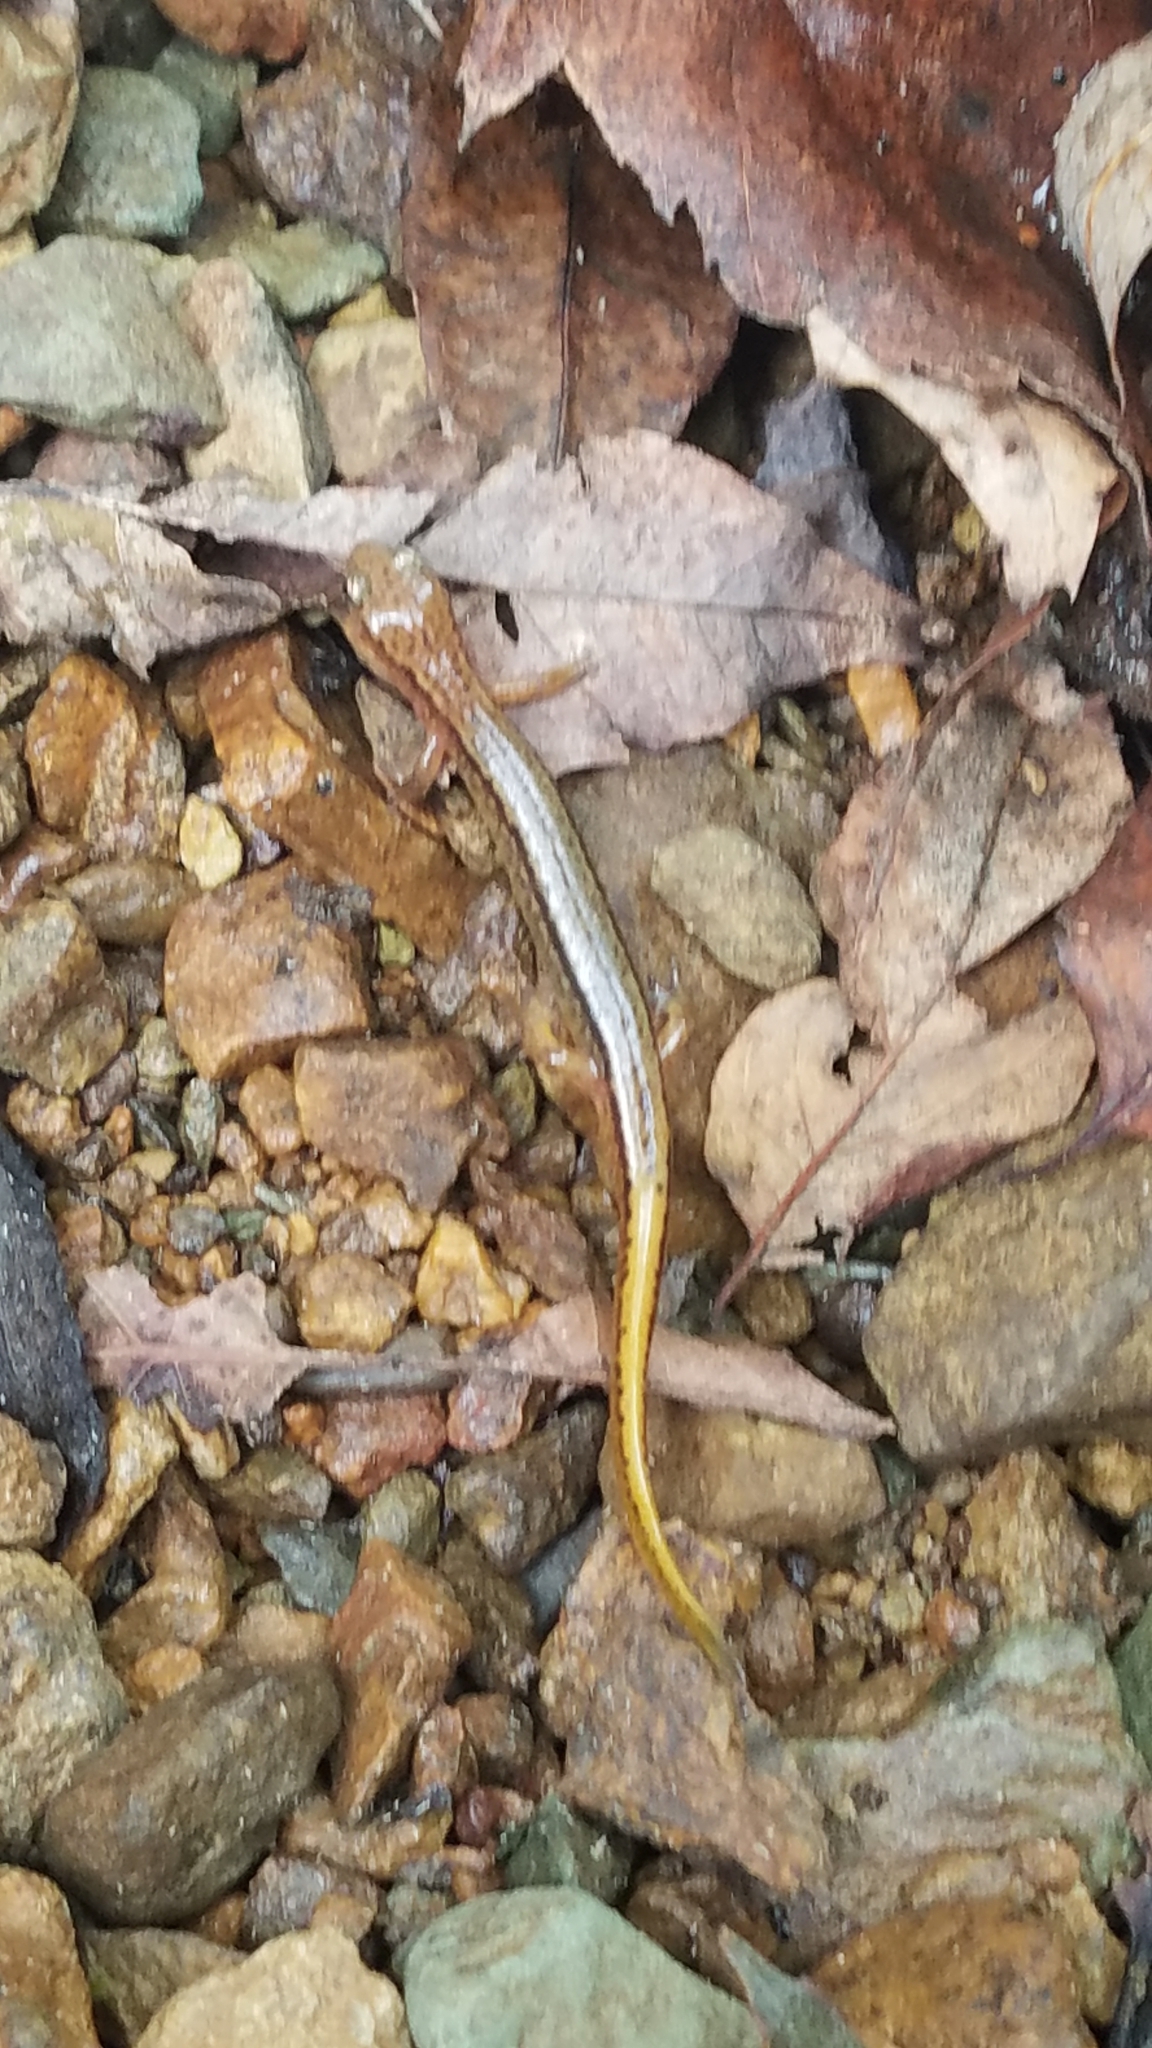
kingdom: Animalia
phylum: Chordata
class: Amphibia
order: Caudata
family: Plethodontidae
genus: Eurycea
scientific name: Eurycea bislineata
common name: Northern two-lined salamander
